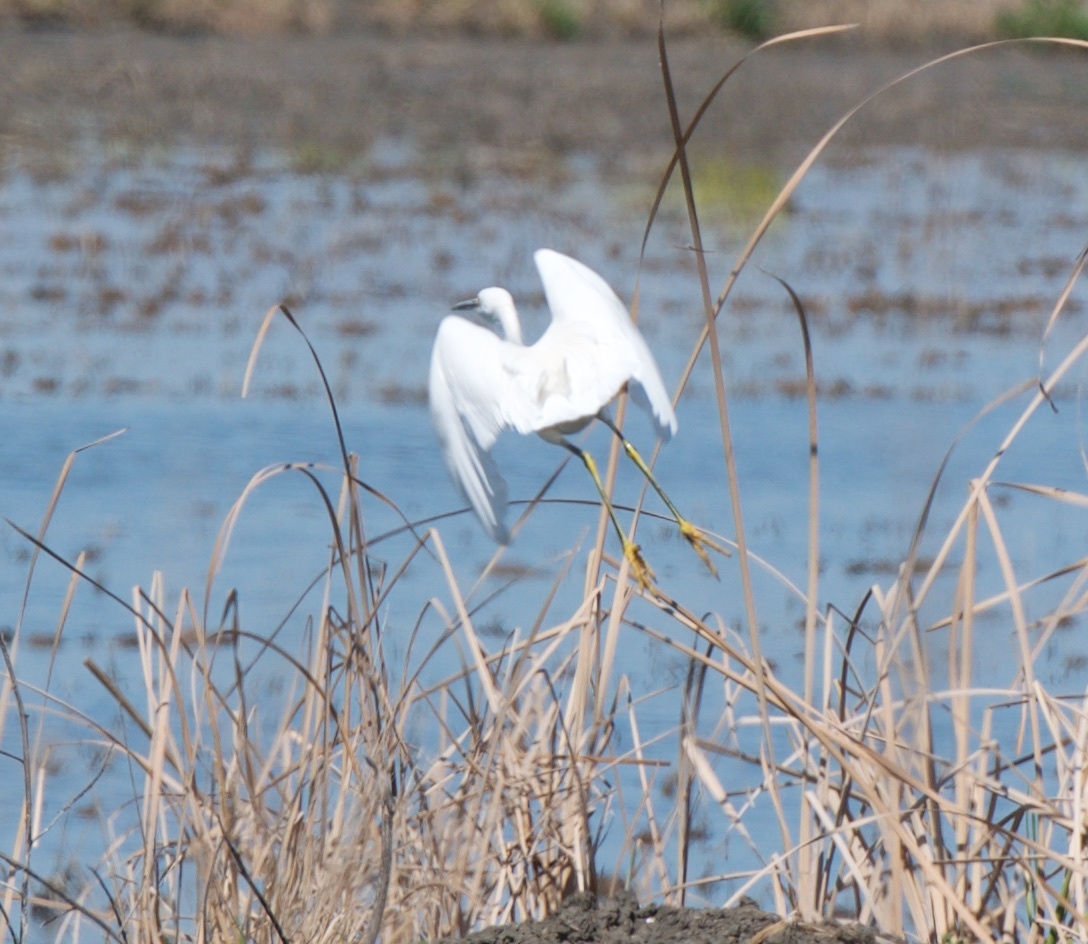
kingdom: Animalia
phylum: Chordata
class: Aves
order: Pelecaniformes
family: Ardeidae
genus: Ardea
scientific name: Ardea alba
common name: Great egret
